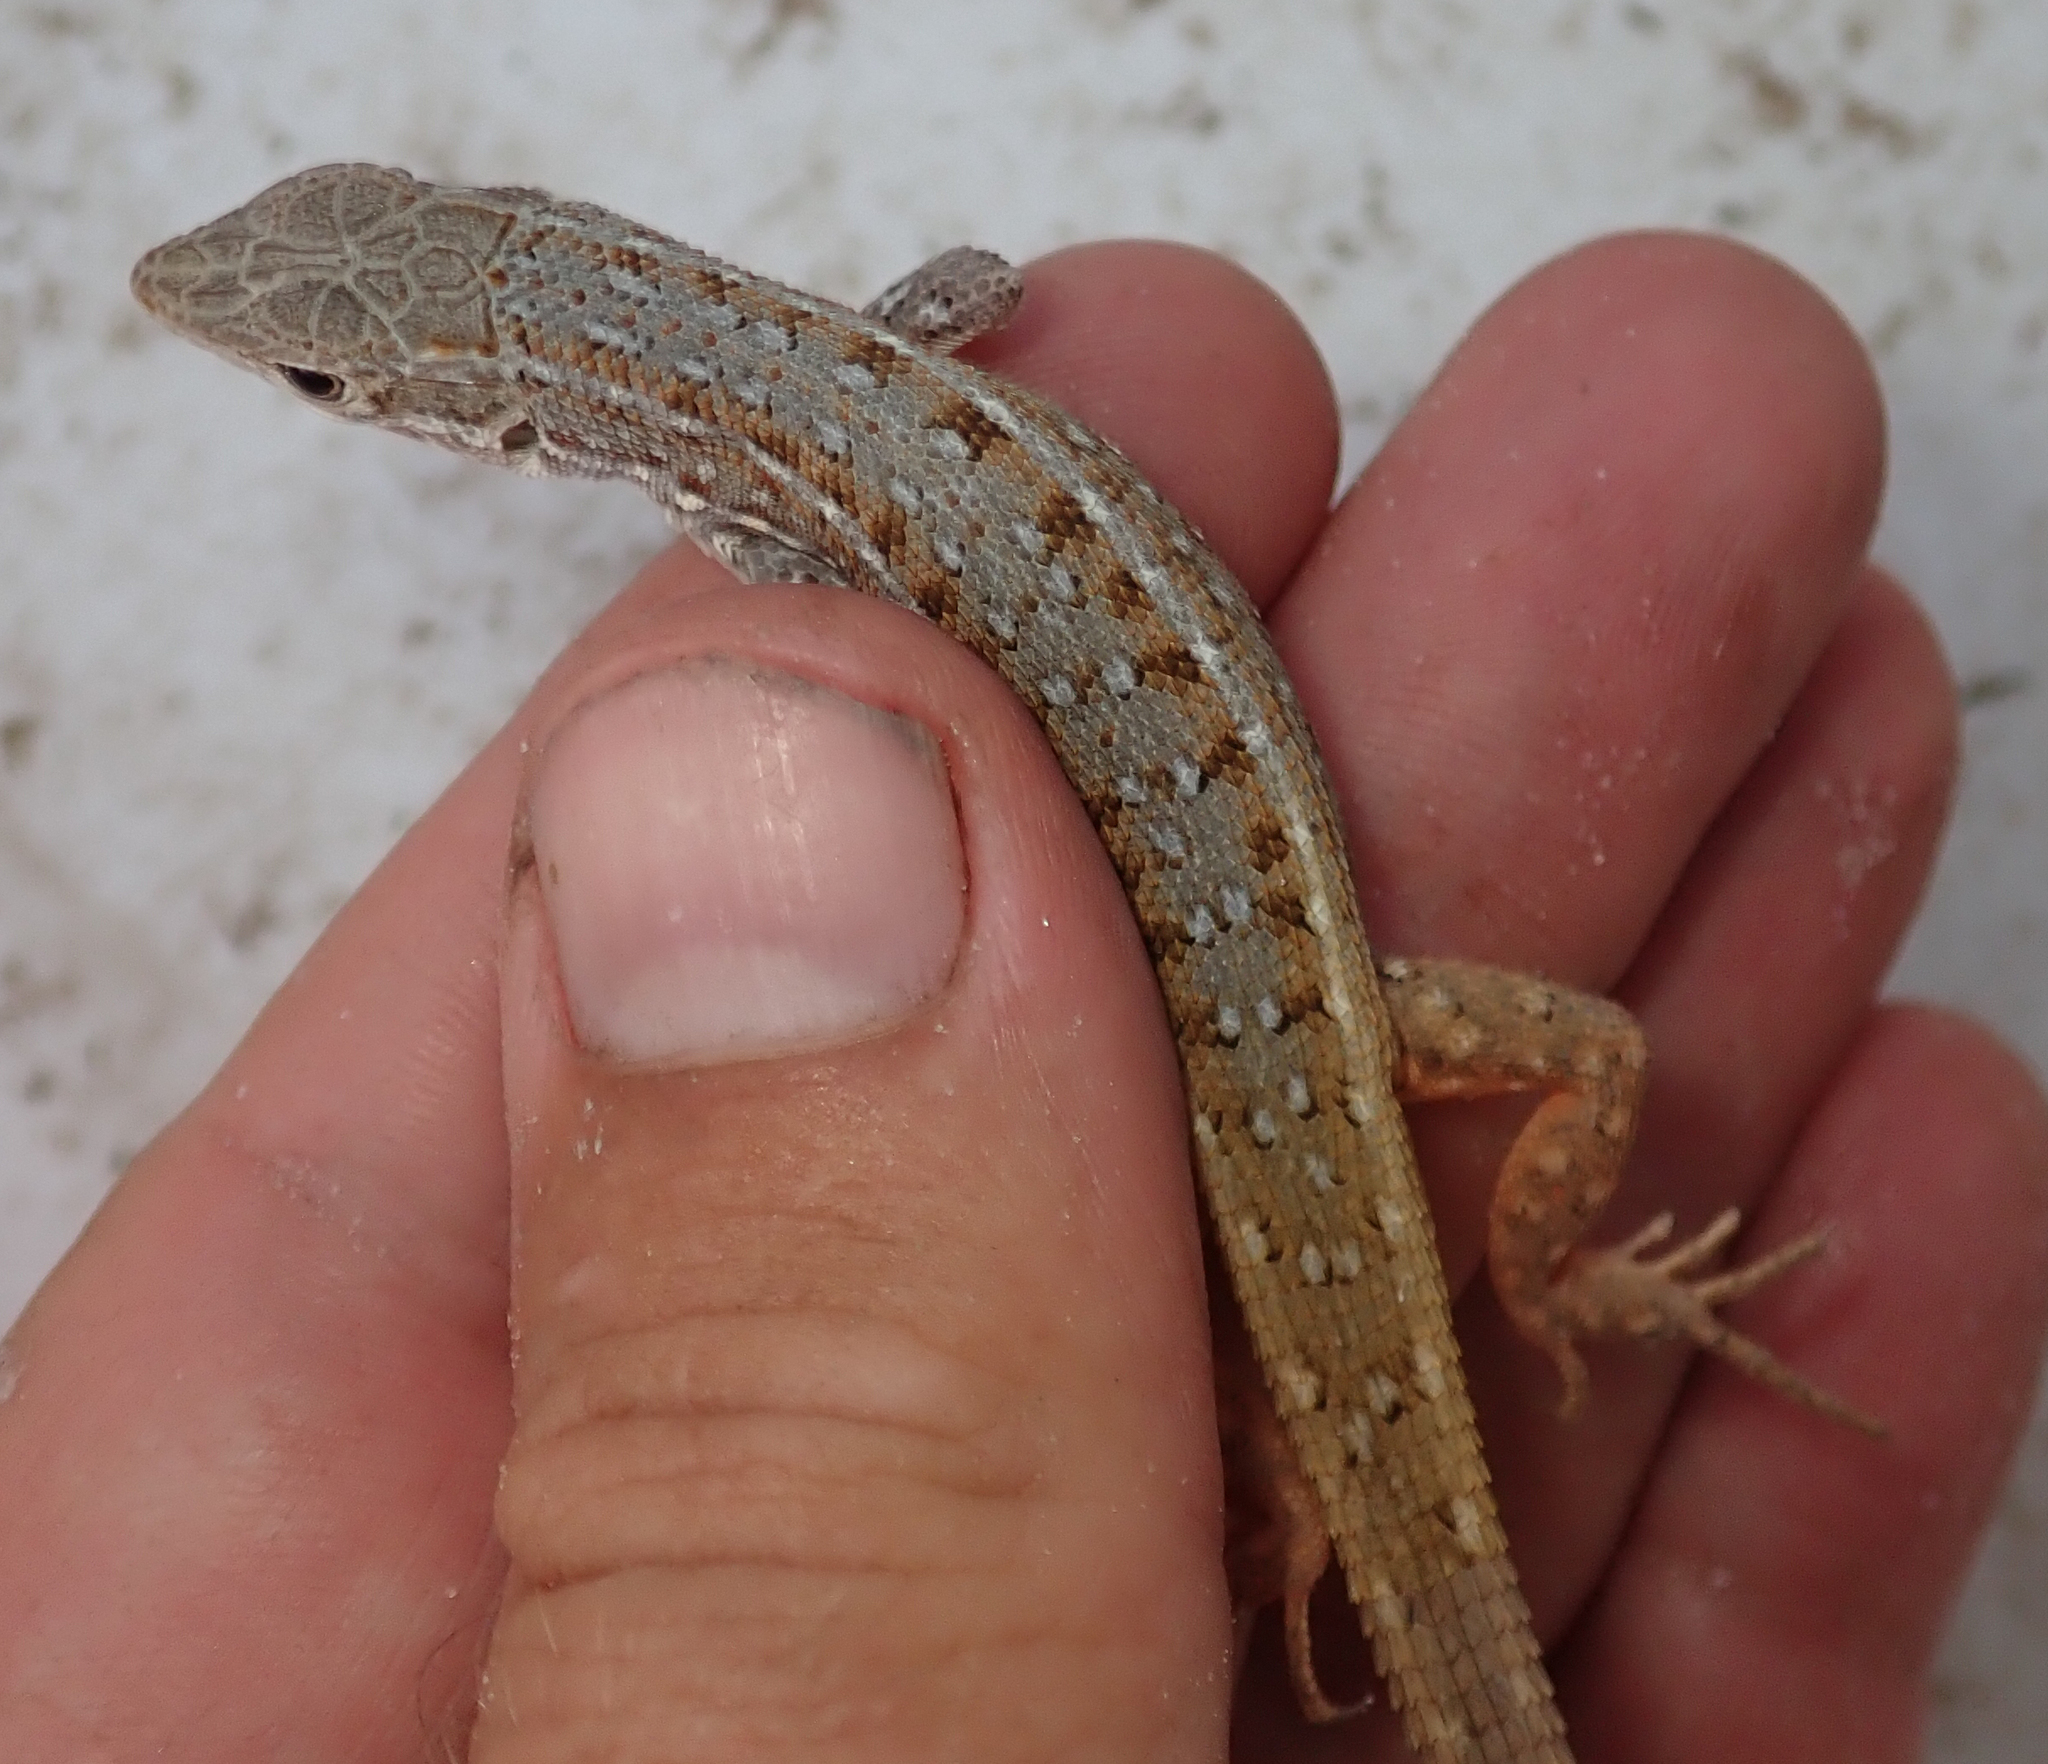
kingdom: Animalia
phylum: Chordata
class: Squamata
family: Lacertidae
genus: Meroles
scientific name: Meroles squamulosus
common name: Common desert lizard
